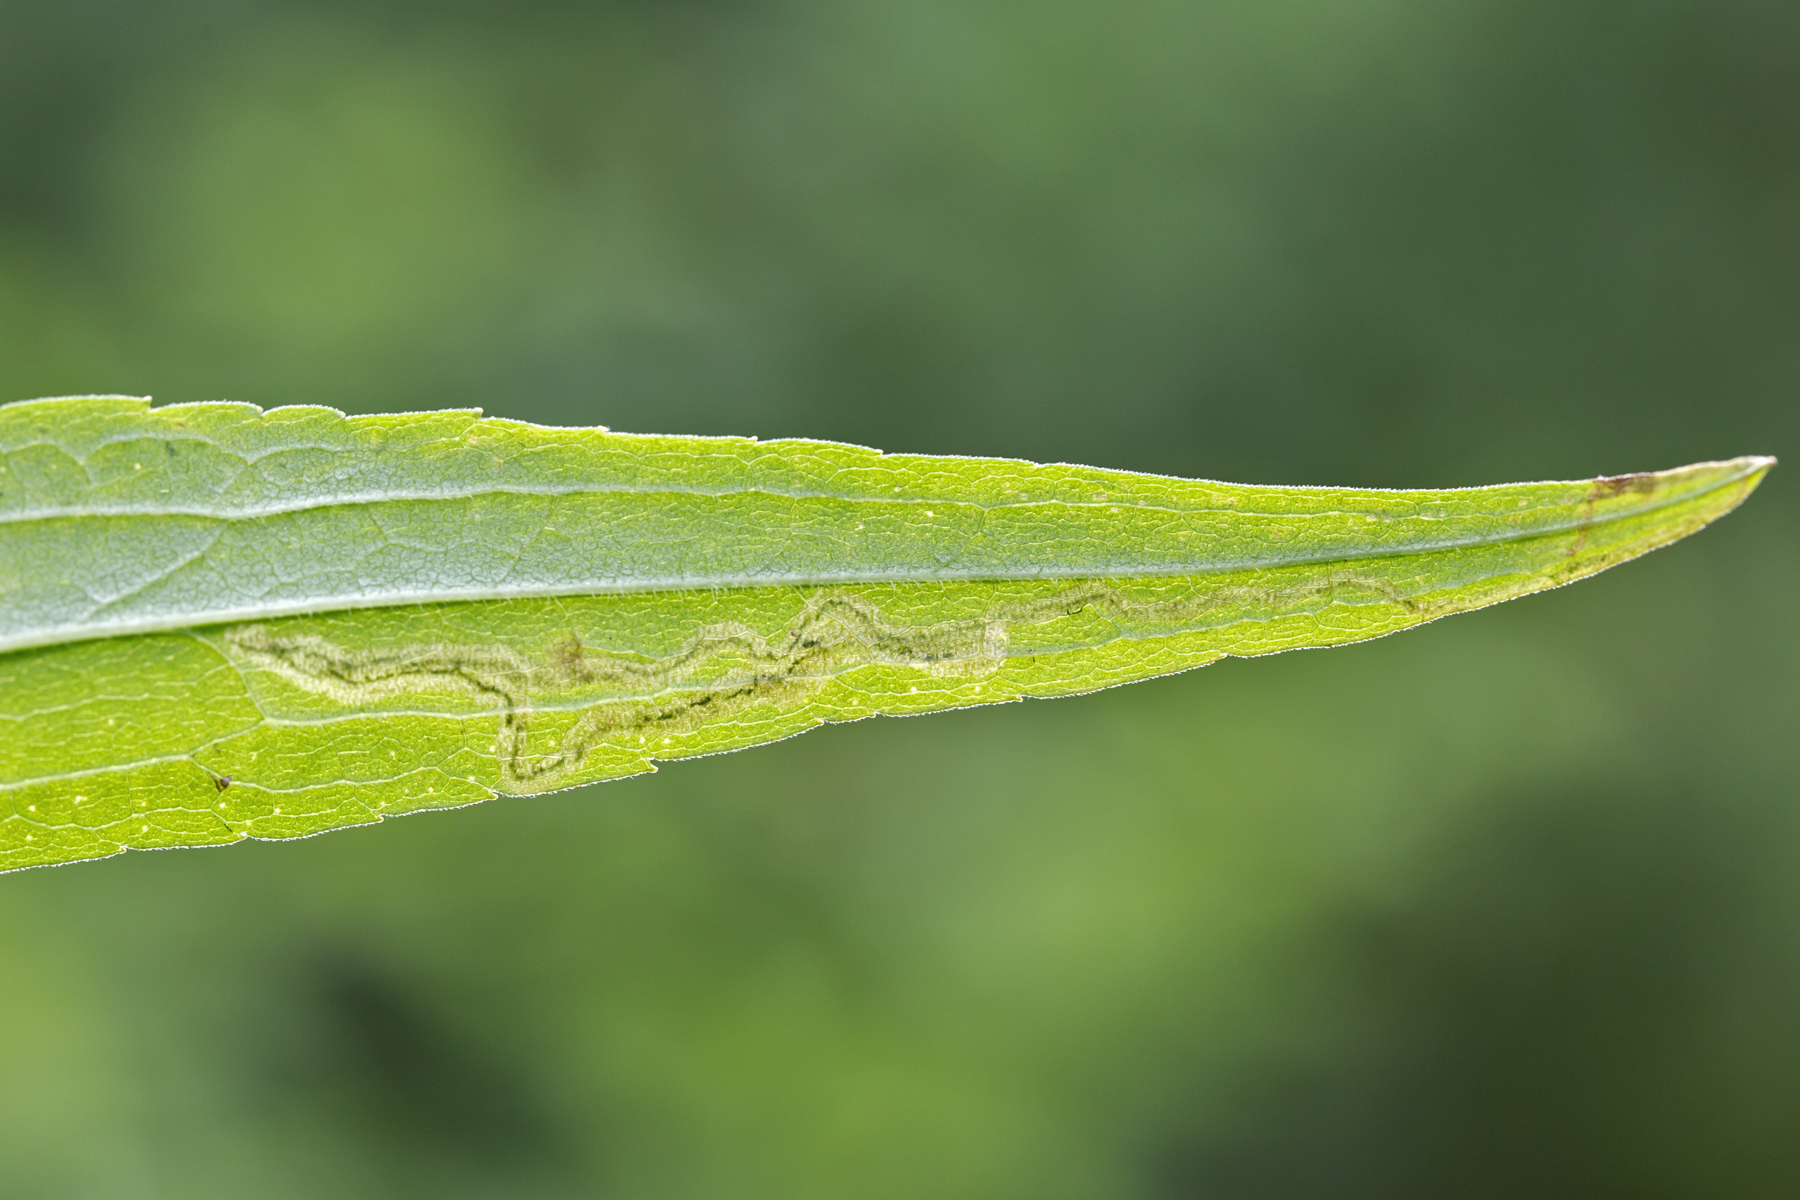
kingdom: Animalia
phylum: Arthropoda
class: Insecta
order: Diptera
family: Agromyzidae
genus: Liriomyza
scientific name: Liriomyza eupatorii
